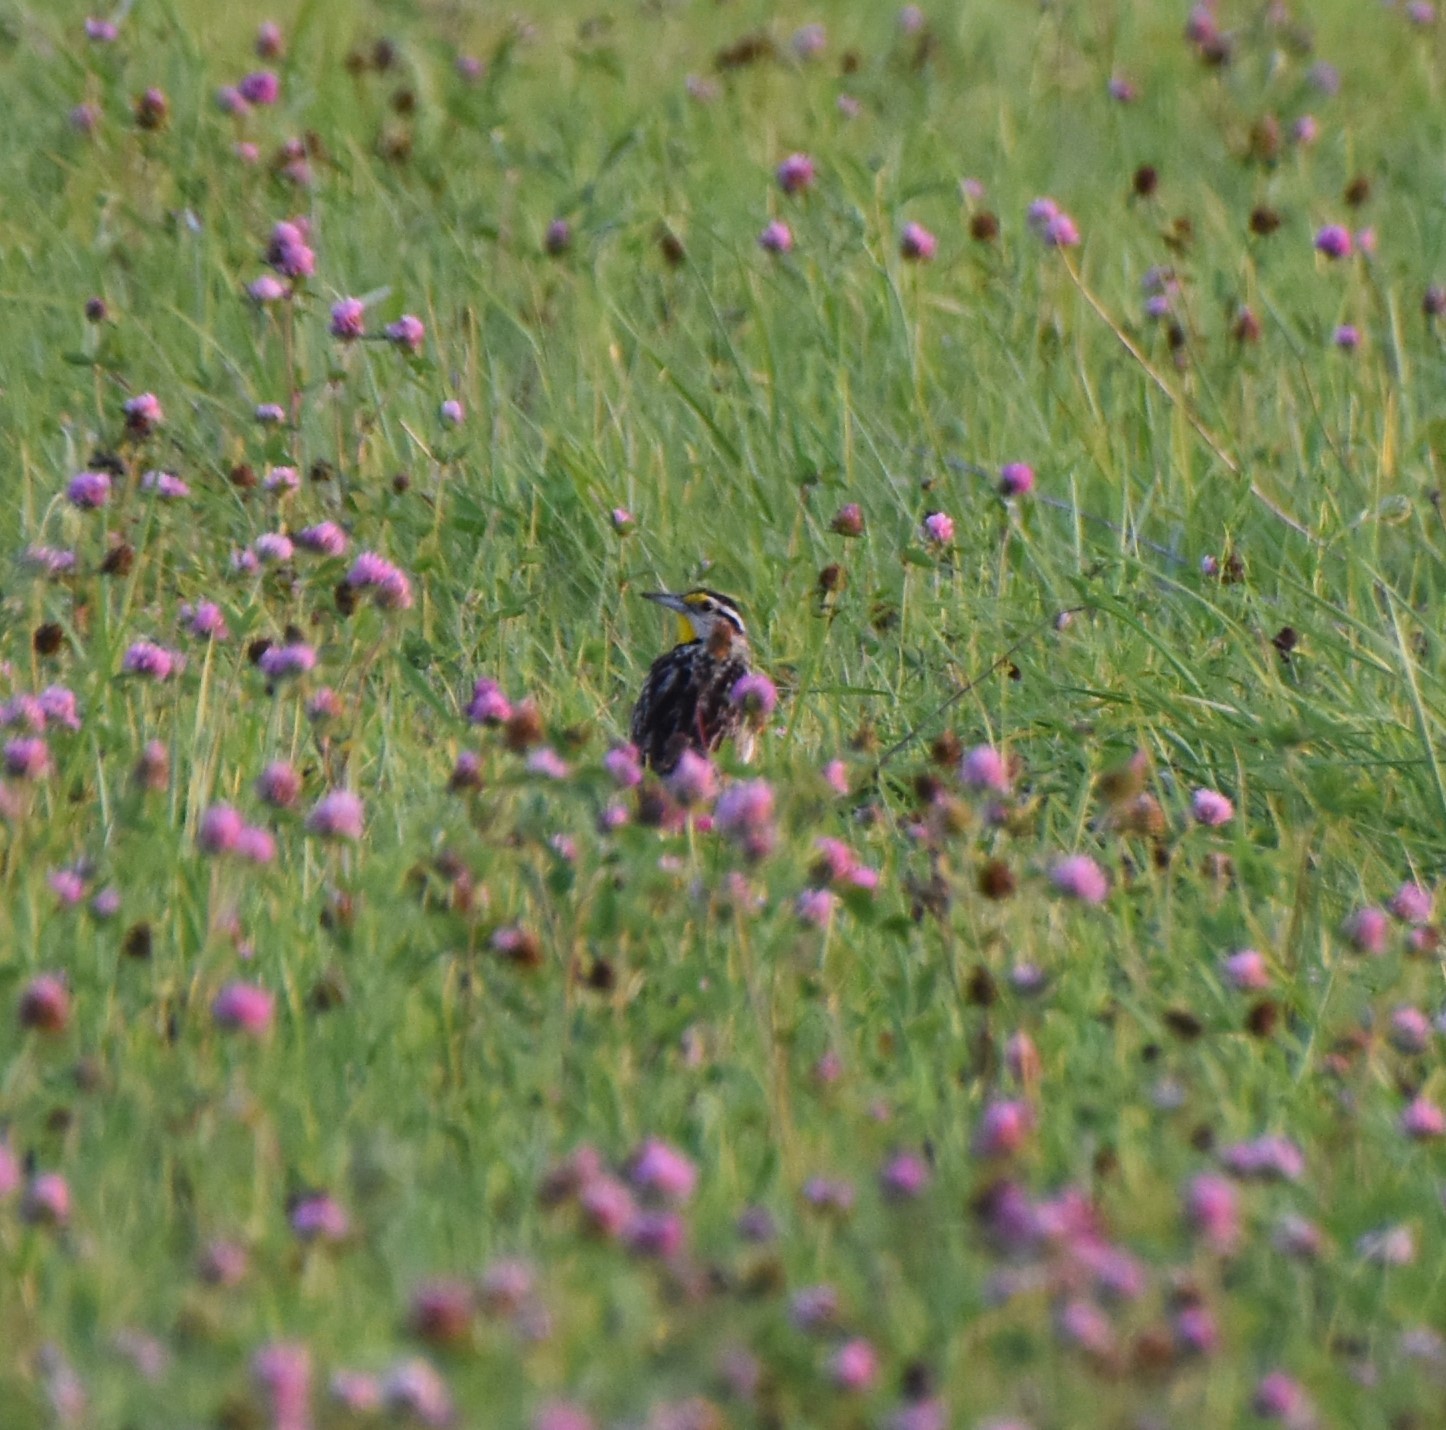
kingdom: Animalia
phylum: Chordata
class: Aves
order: Passeriformes
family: Icteridae
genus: Sturnella
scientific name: Sturnella magna
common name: Eastern meadowlark
